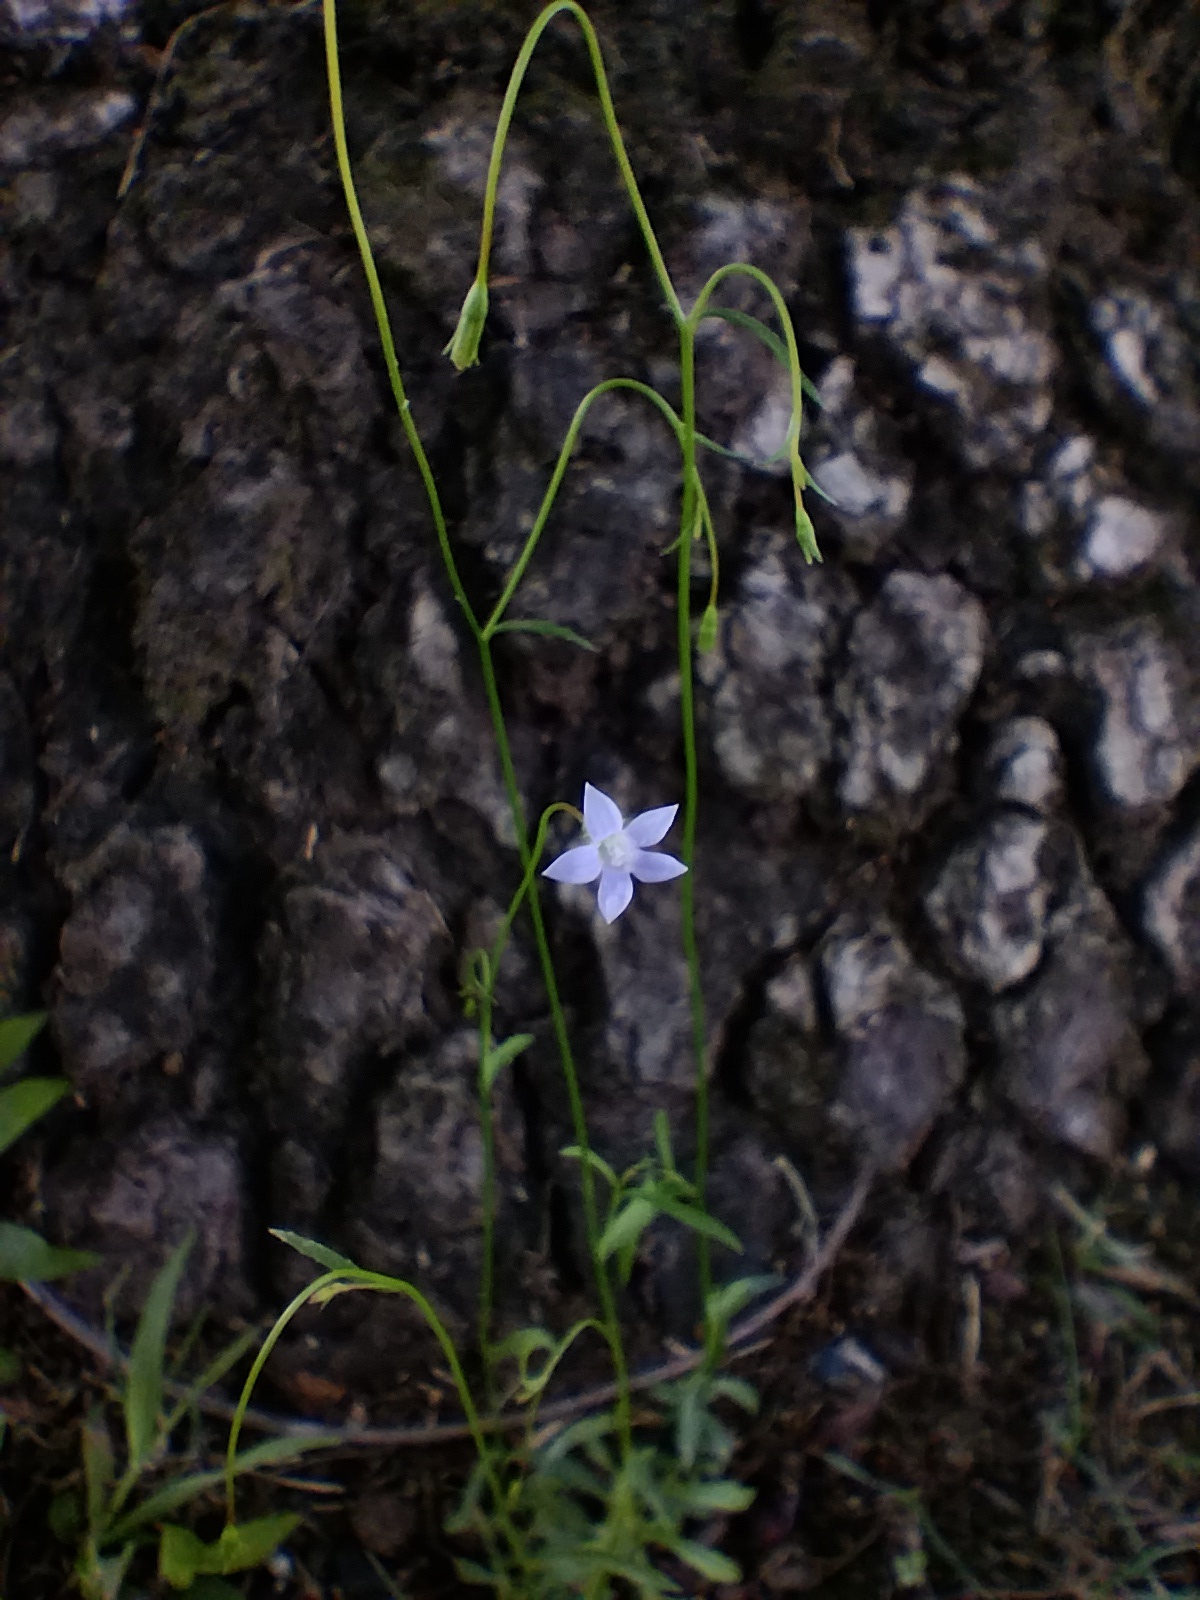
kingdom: Plantae
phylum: Tracheophyta
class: Magnoliopsida
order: Asterales
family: Campanulaceae
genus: Wahlenbergia
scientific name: Wahlenbergia gracilis
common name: Harebell
